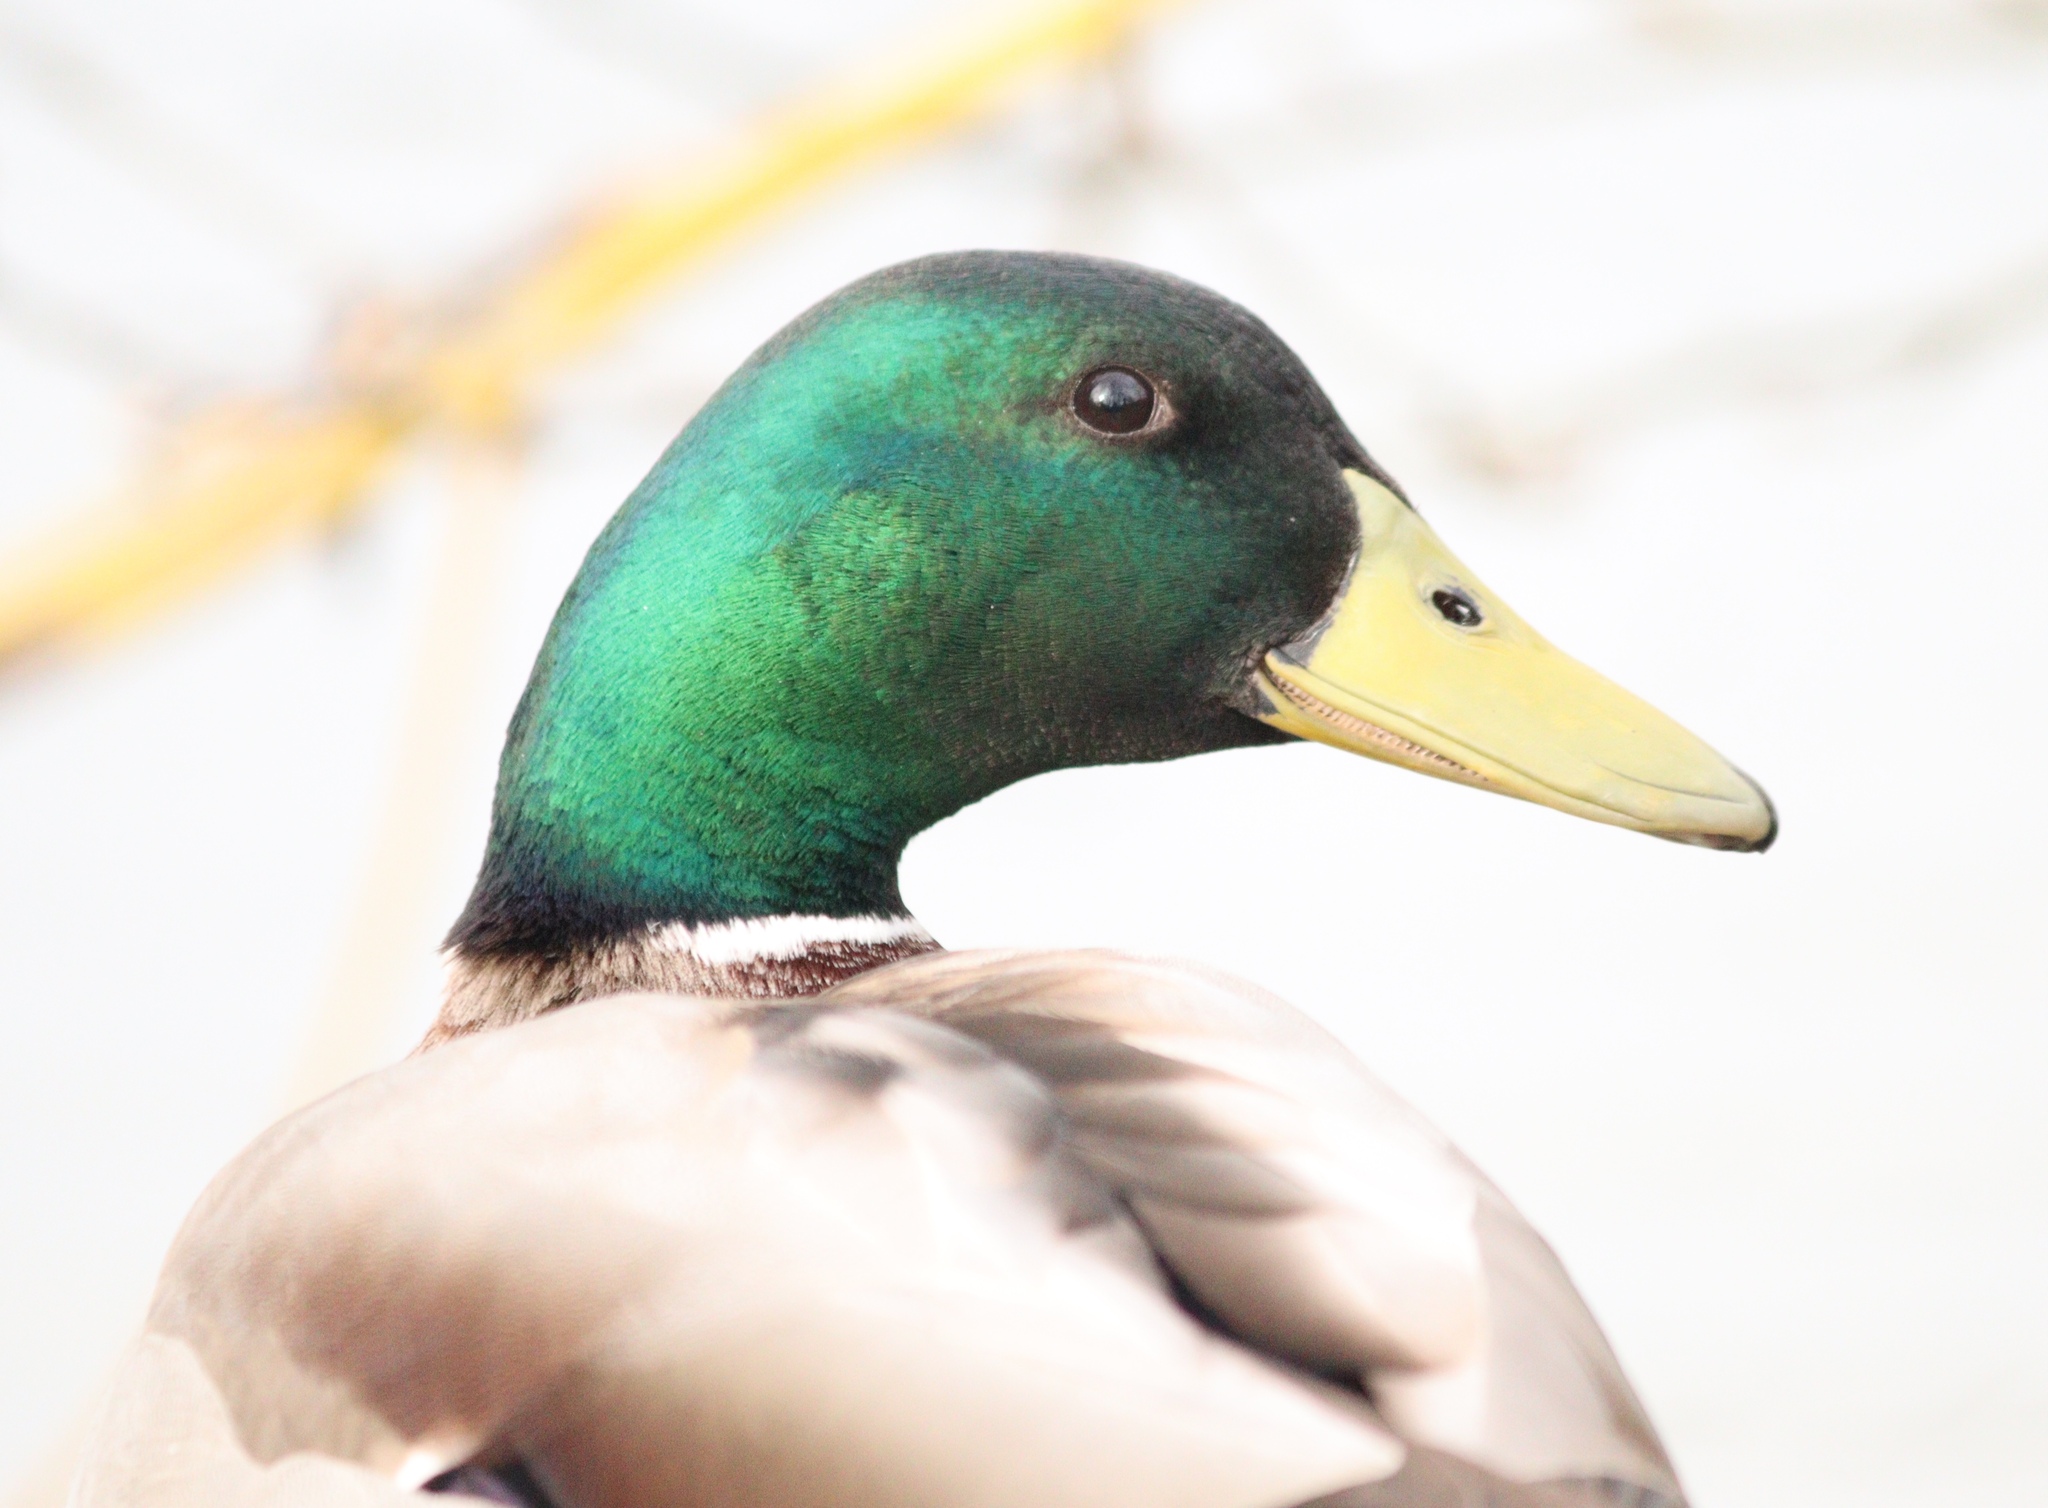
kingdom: Animalia
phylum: Chordata
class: Aves
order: Anseriformes
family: Anatidae
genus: Anas
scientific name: Anas platyrhynchos
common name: Mallard
